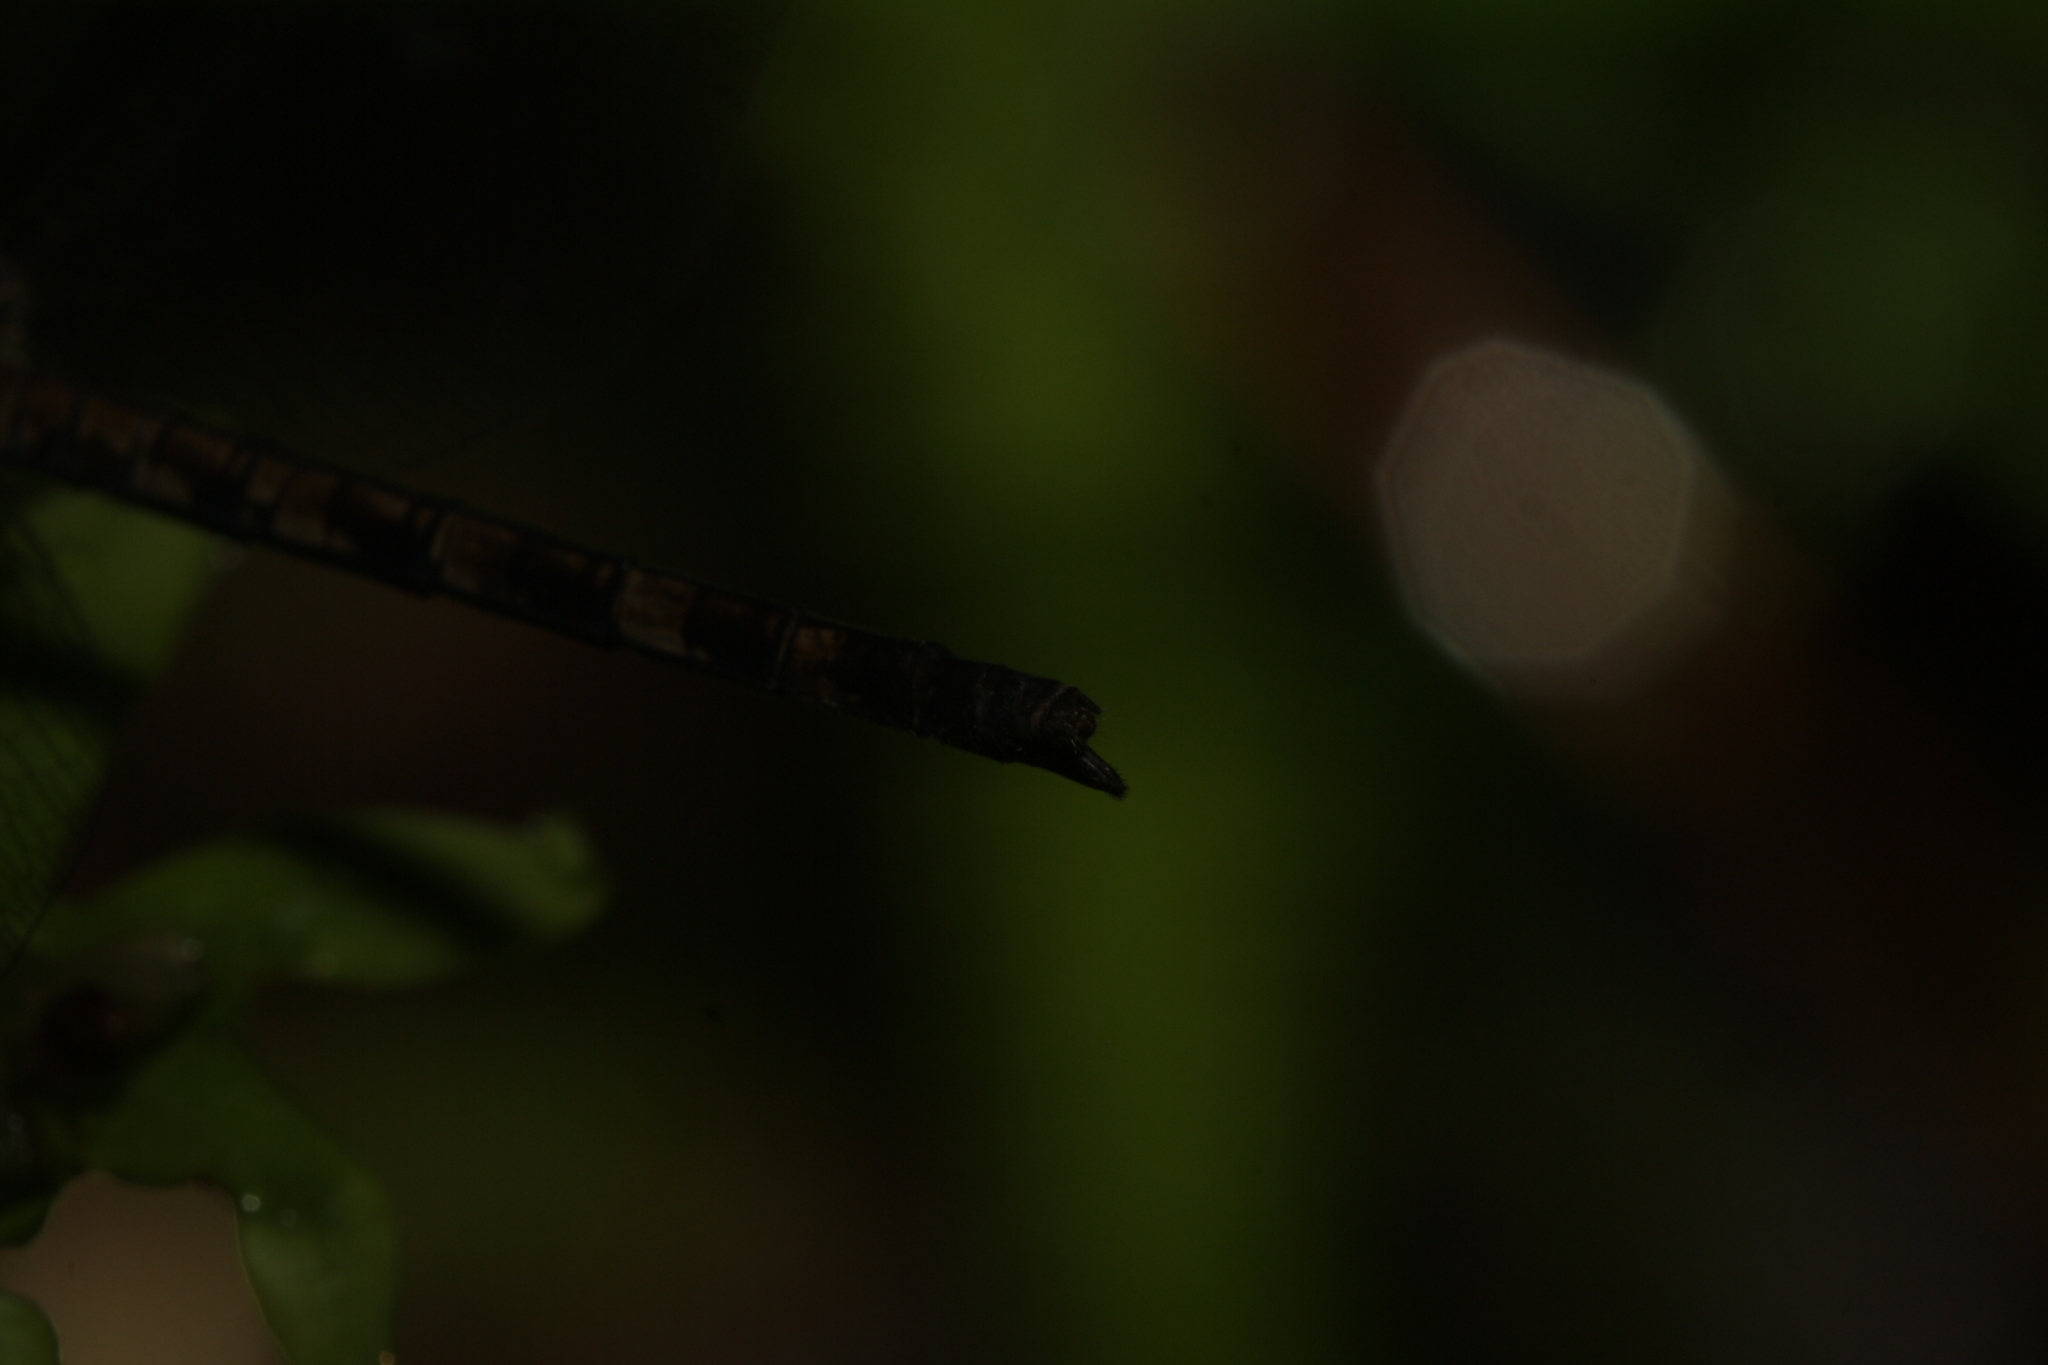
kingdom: Animalia
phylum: Arthropoda
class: Insecta
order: Odonata
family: Libellulidae
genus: Uracis
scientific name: Uracis imbuta
